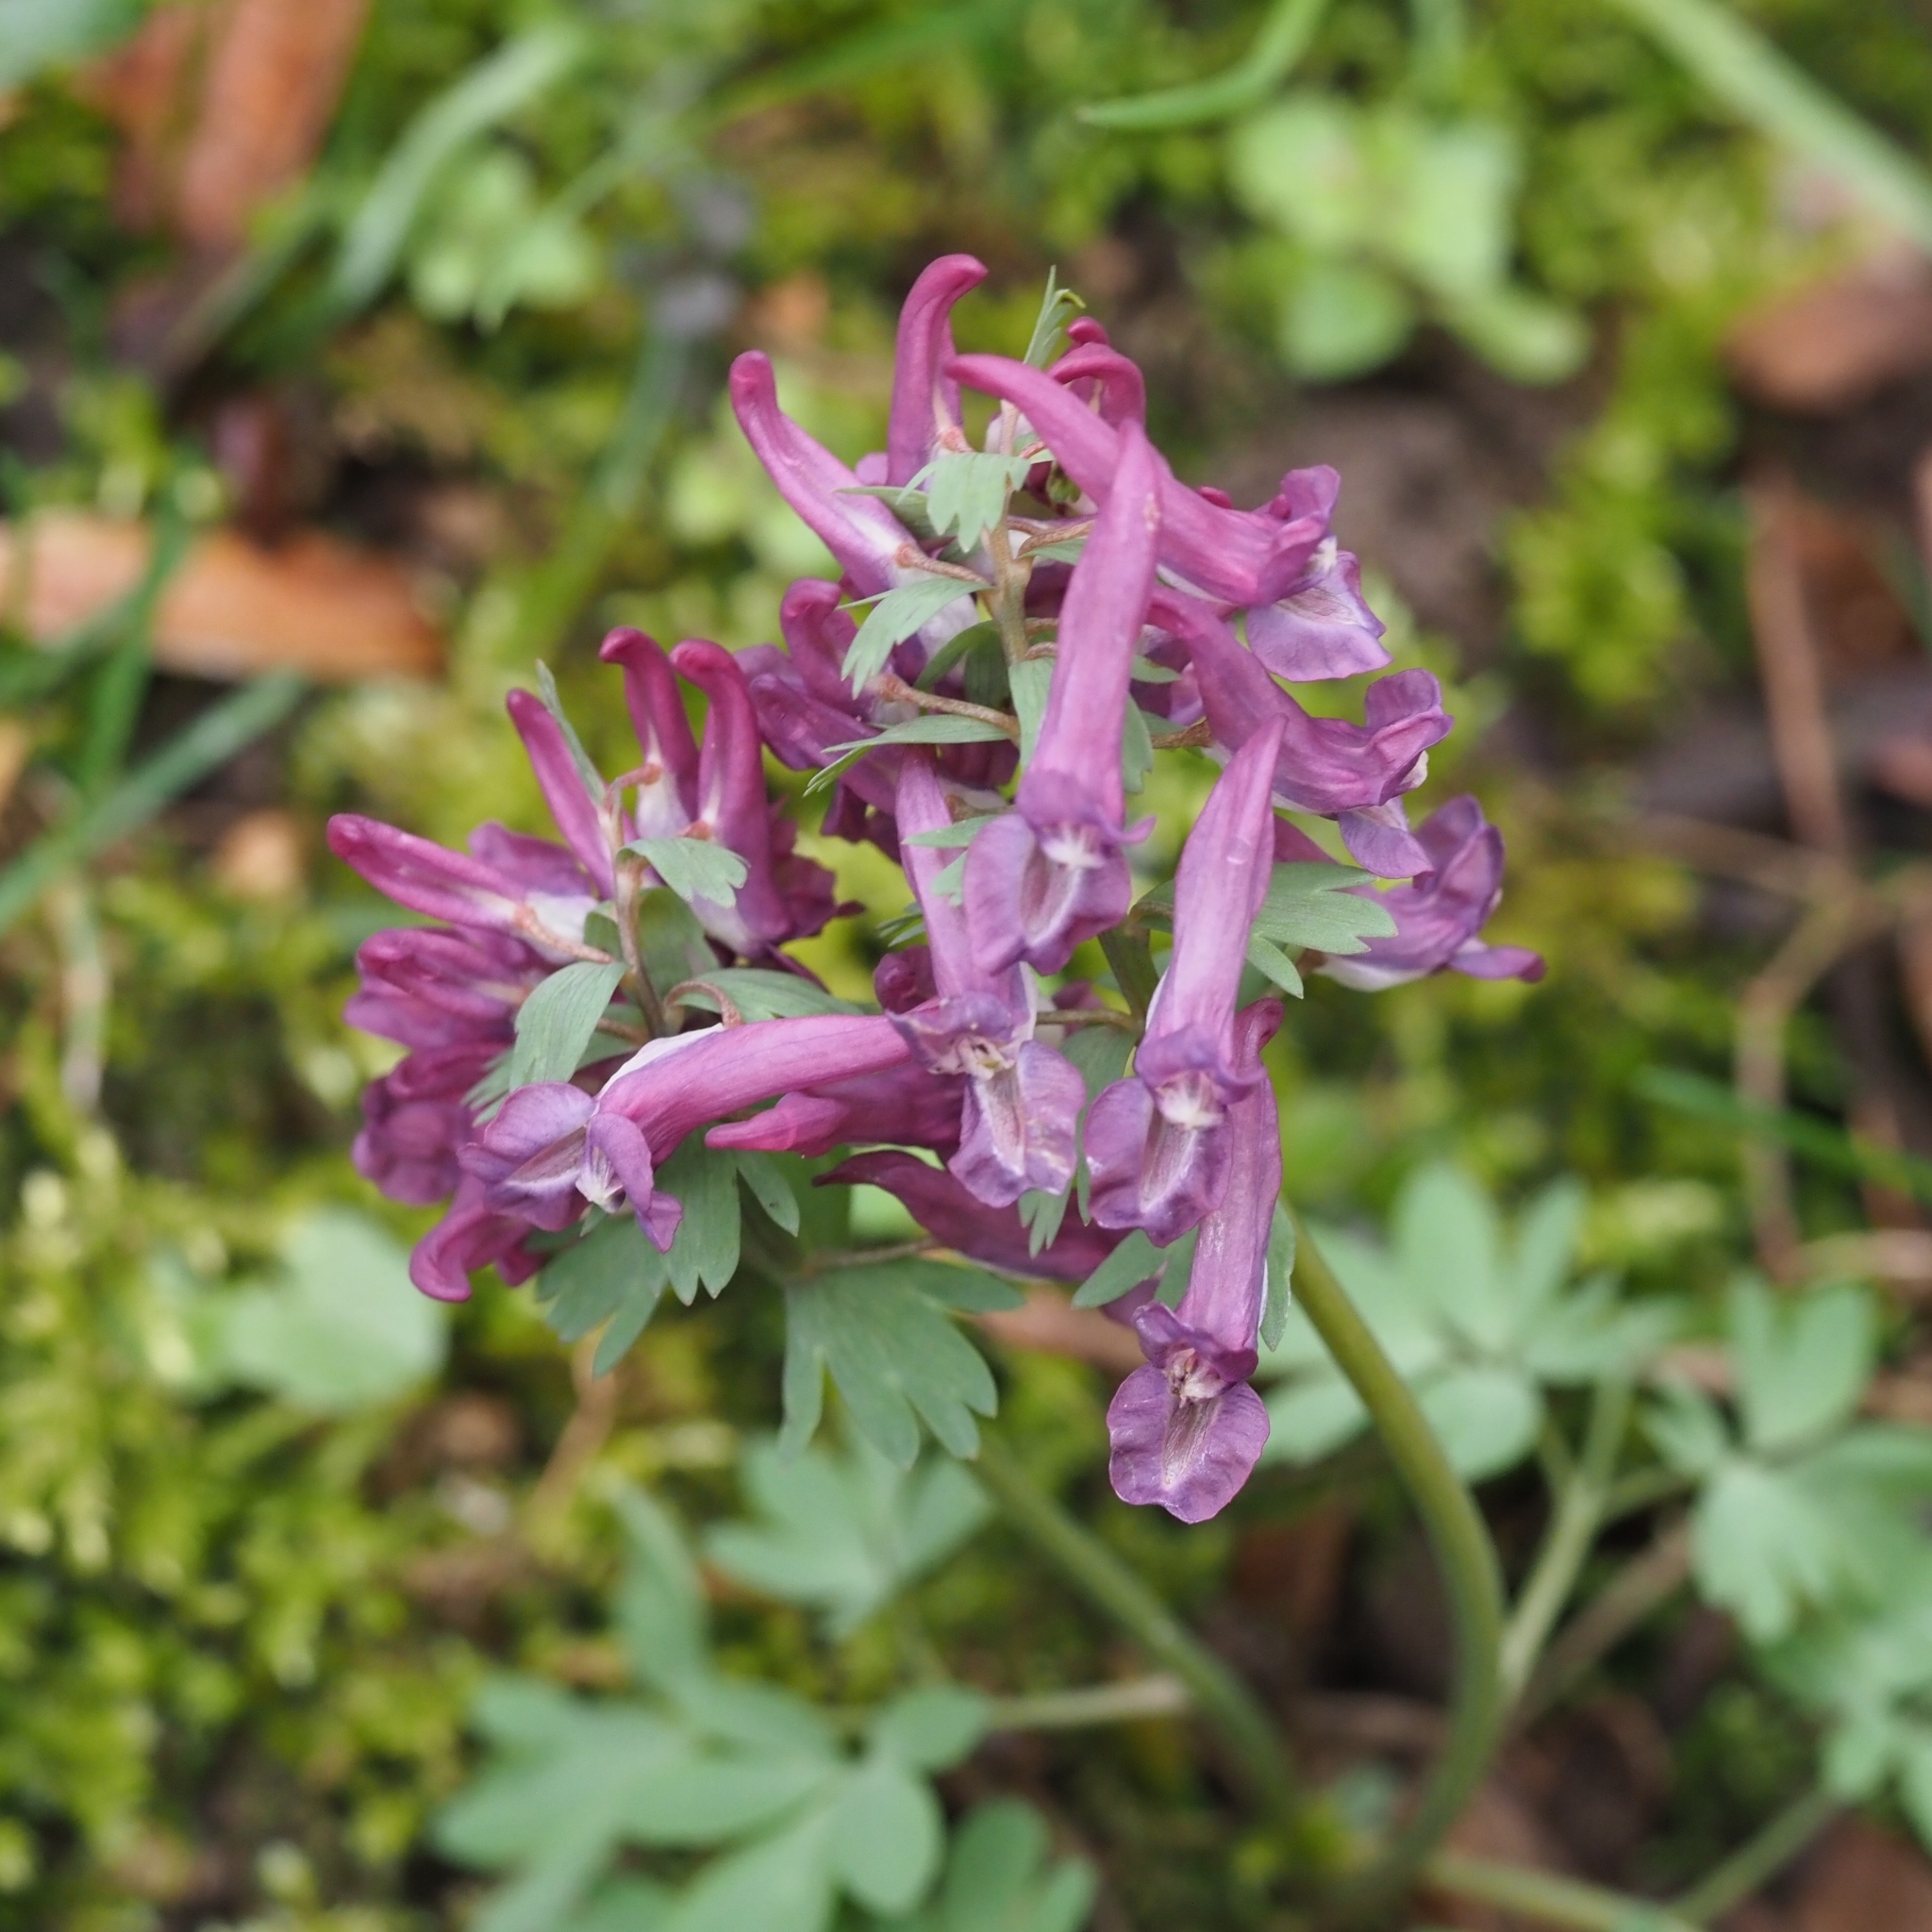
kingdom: Plantae
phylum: Tracheophyta
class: Magnoliopsida
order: Ranunculales
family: Papaveraceae
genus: Corydalis
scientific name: Corydalis solida
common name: Bird-in-a-bush
